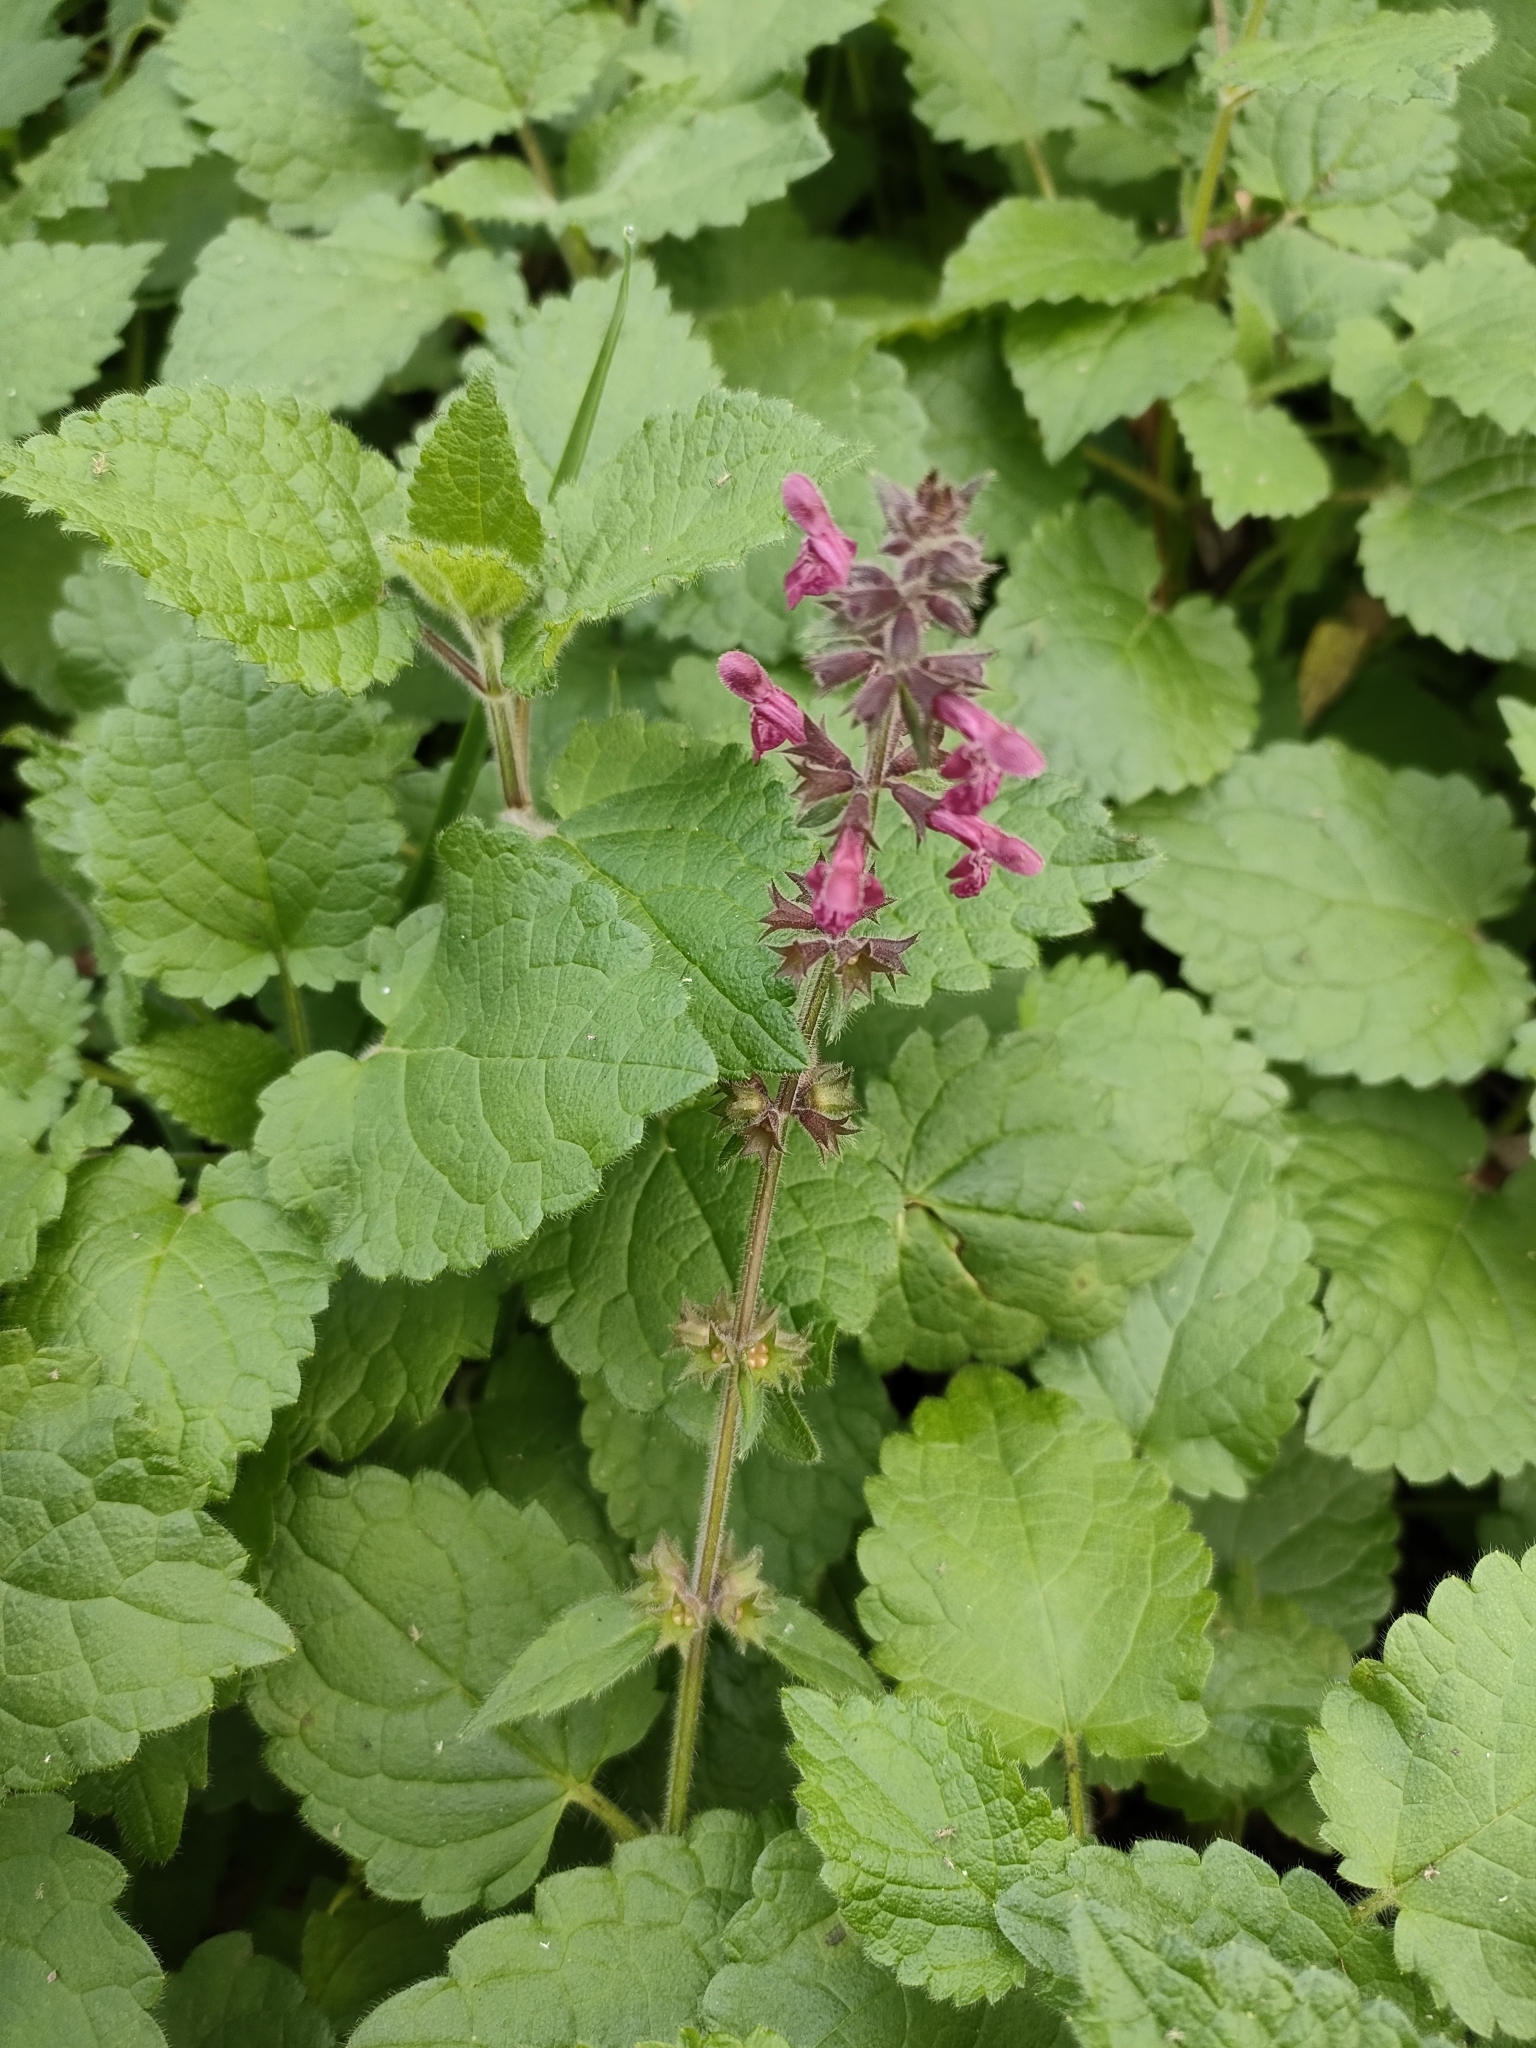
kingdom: Plantae
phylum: Tracheophyta
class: Magnoliopsida
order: Lamiales
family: Lamiaceae
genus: Stachys
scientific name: Stachys sylvatica
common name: Hedge woundwort
